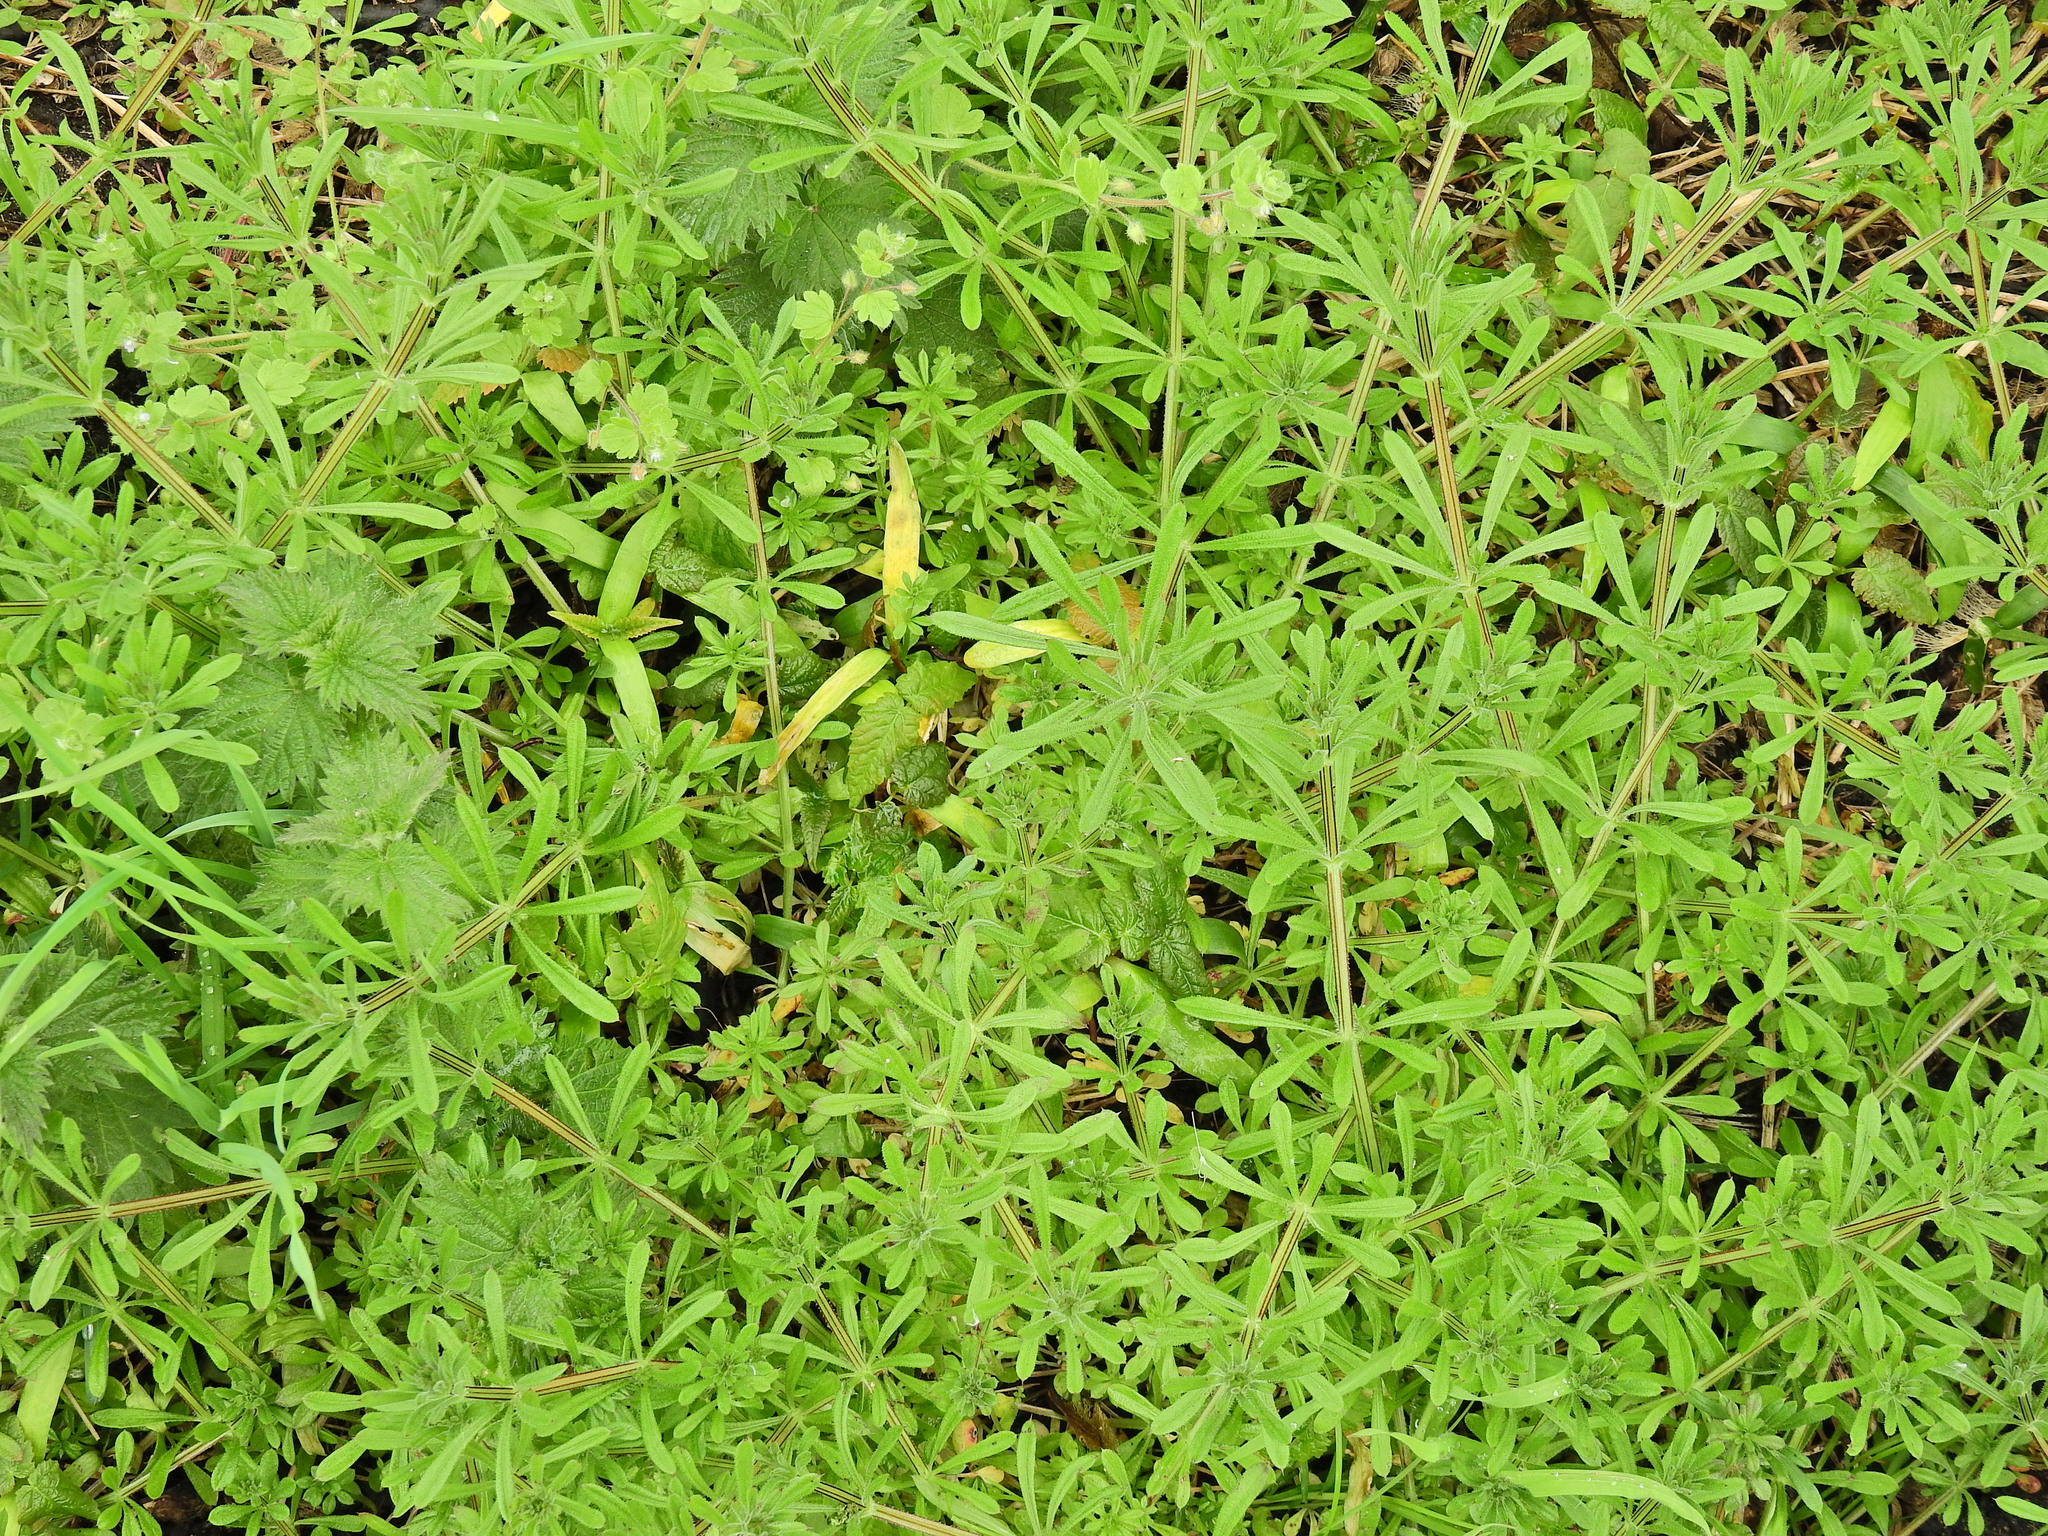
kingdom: Plantae
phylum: Tracheophyta
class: Magnoliopsida
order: Gentianales
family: Rubiaceae
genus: Galium
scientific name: Galium aparine
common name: Cleavers
